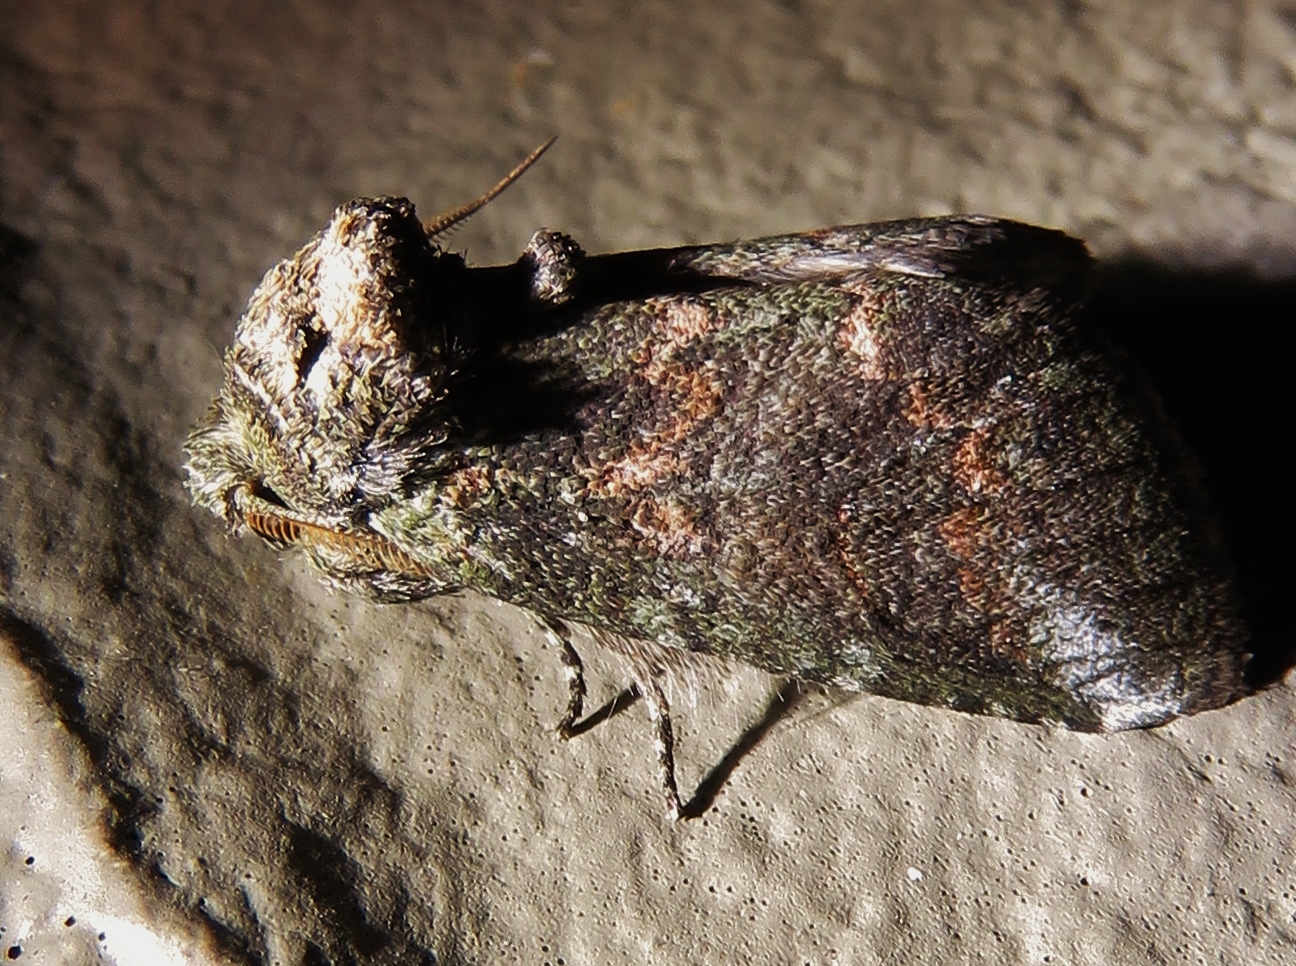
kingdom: Animalia
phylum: Arthropoda
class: Insecta
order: Lepidoptera
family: Notodontidae
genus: Rifargia
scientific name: Rifargia
